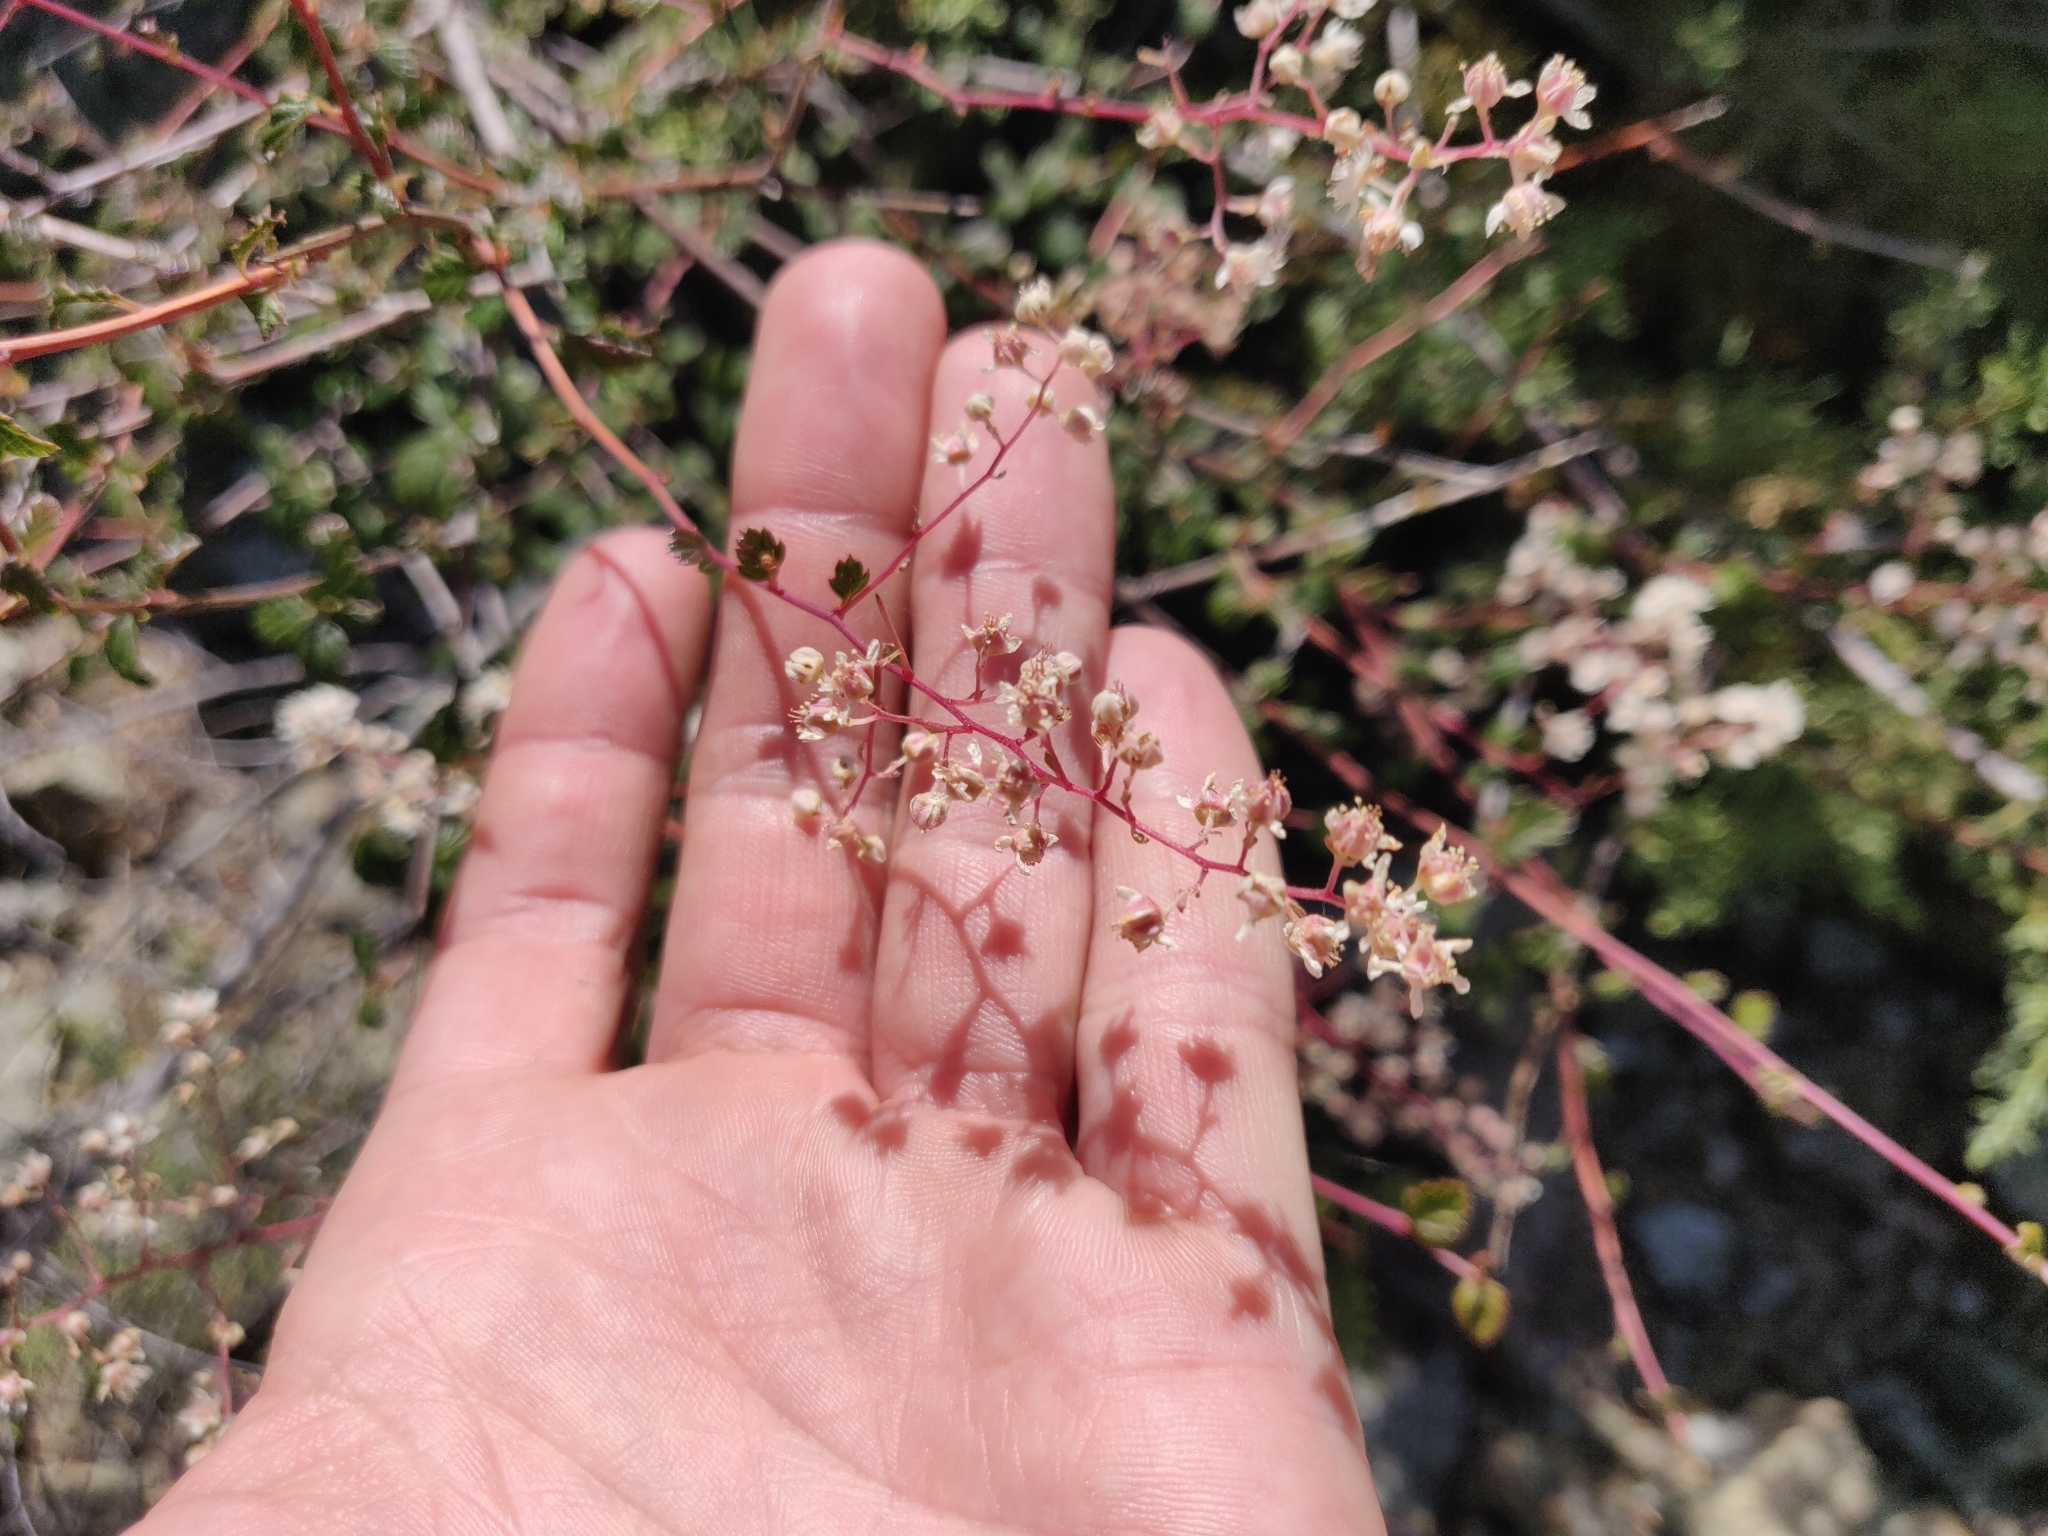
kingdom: Plantae
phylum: Tracheophyta
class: Magnoliopsida
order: Rosales
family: Rosaceae
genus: Holodiscus
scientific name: Holodiscus discolor
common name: Oceanspray
